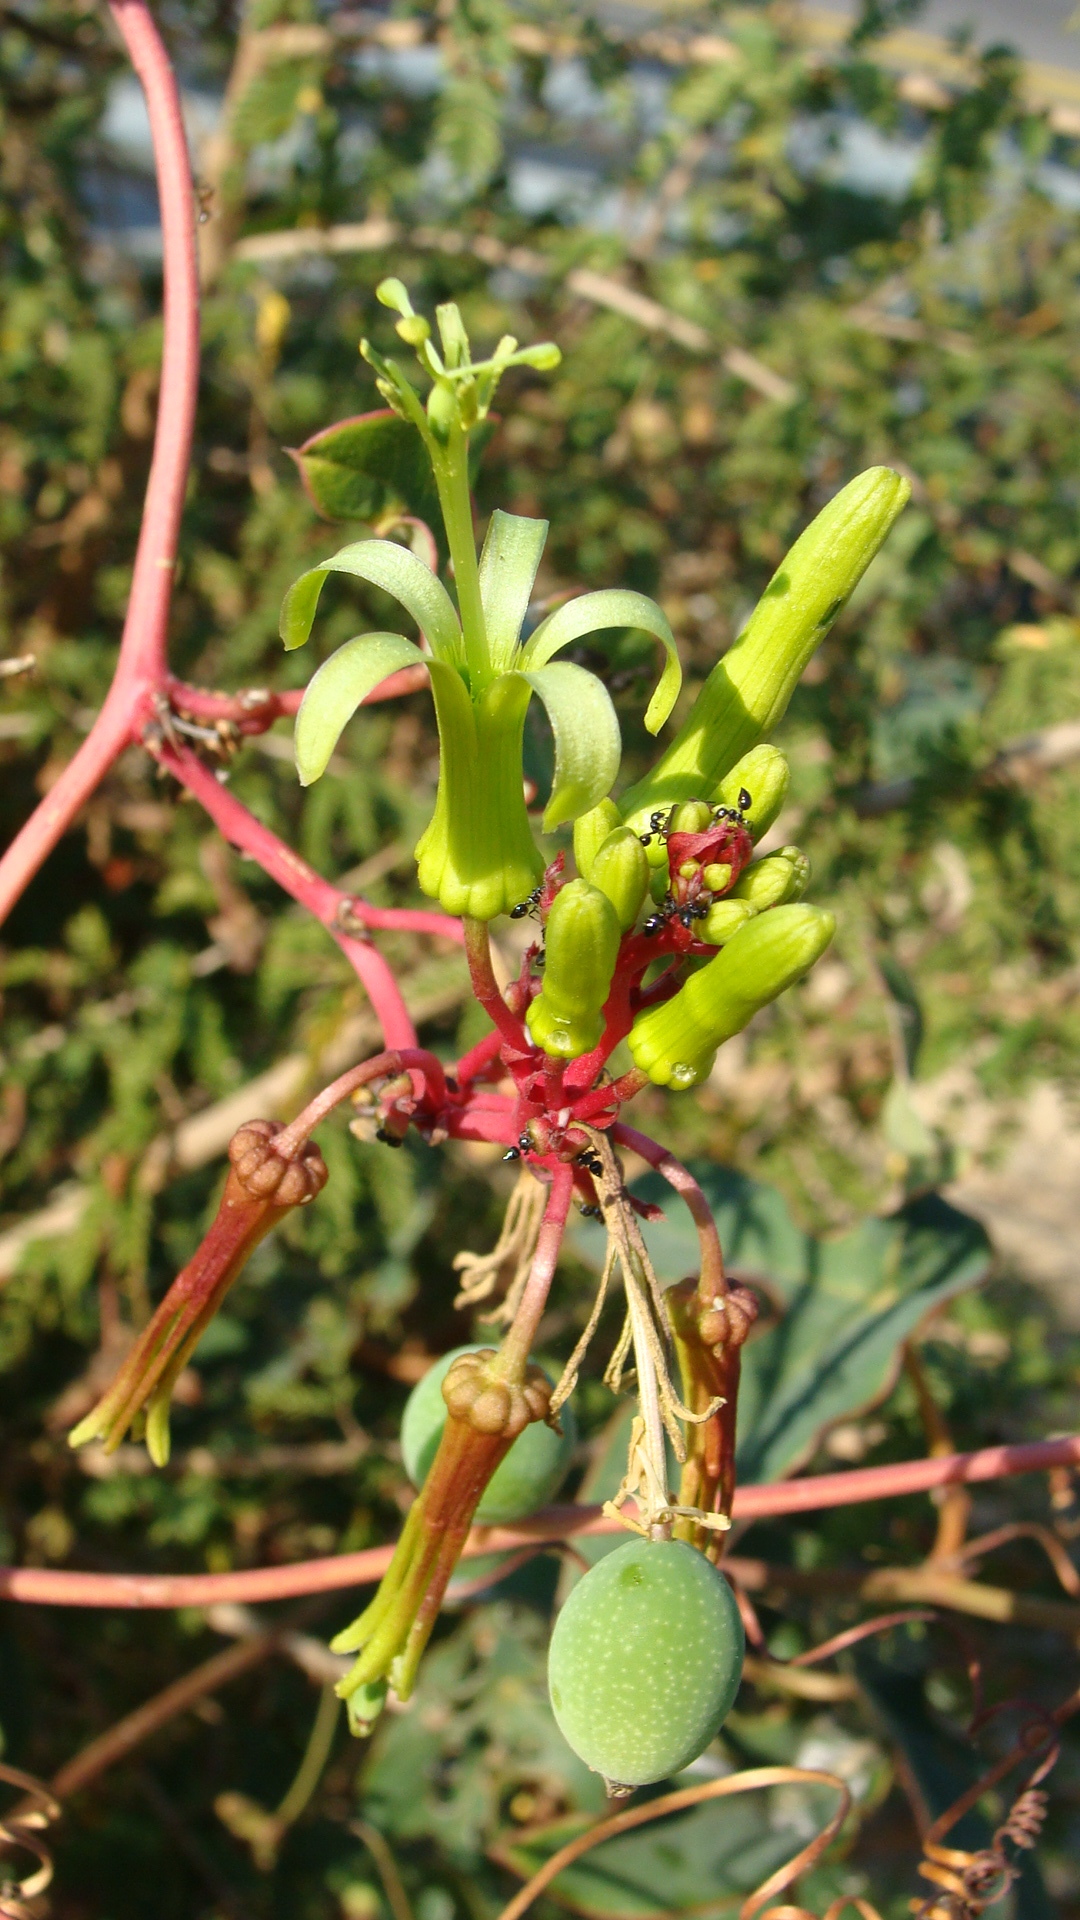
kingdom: Plantae
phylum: Tracheophyta
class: Magnoliopsida
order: Malpighiales
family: Passifloraceae
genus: Passiflora
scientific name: Passiflora viridiflora
